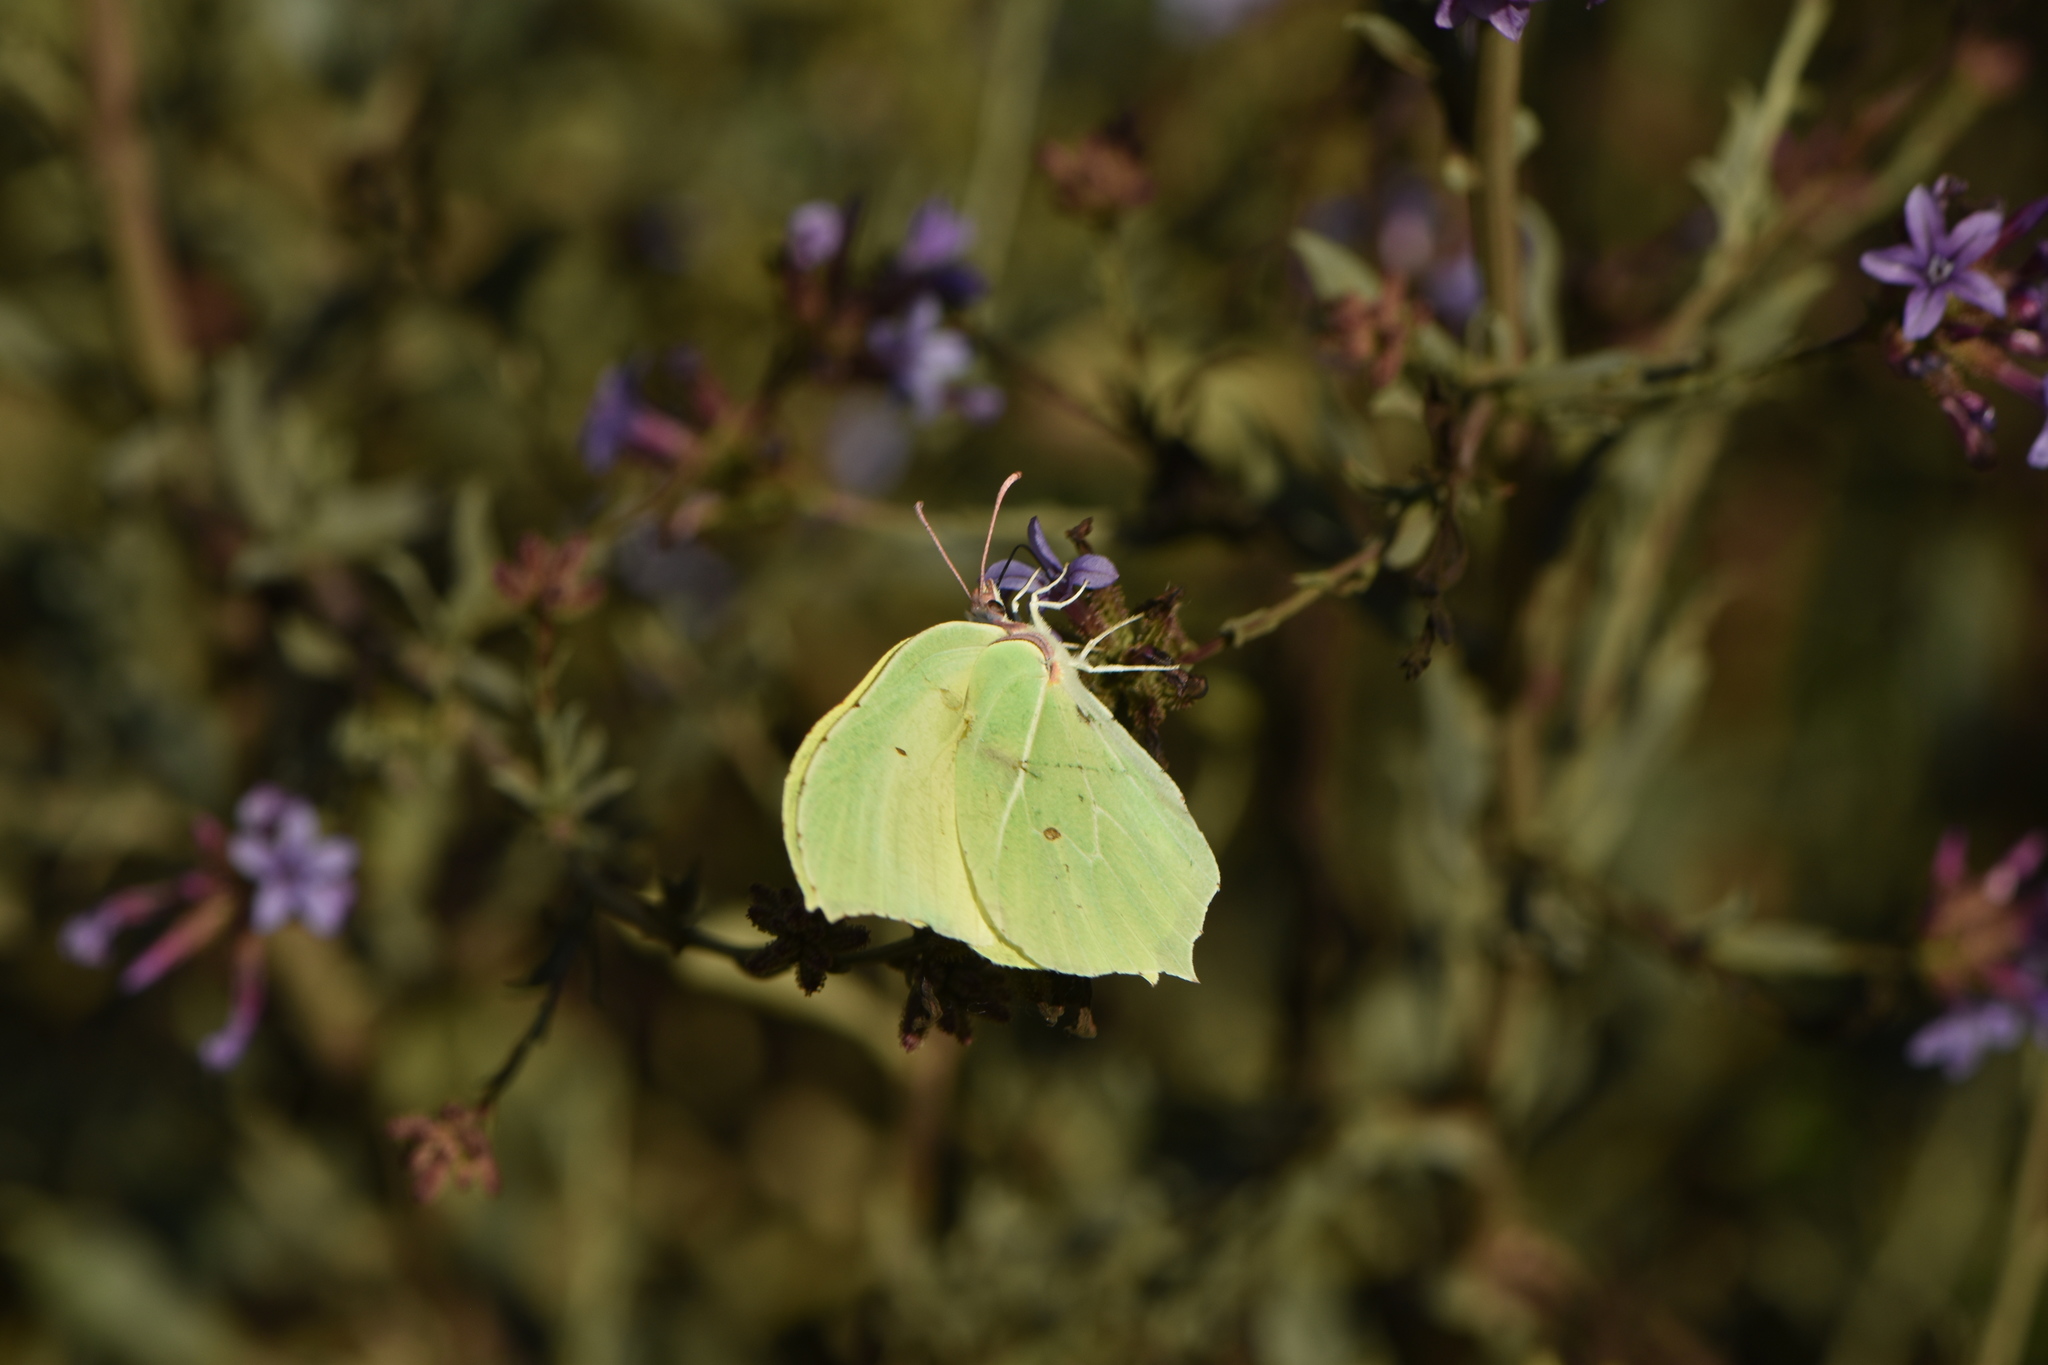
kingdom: Animalia
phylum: Arthropoda
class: Insecta
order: Lepidoptera
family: Pieridae
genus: Gonepteryx
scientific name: Gonepteryx rhamni
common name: Brimstone
